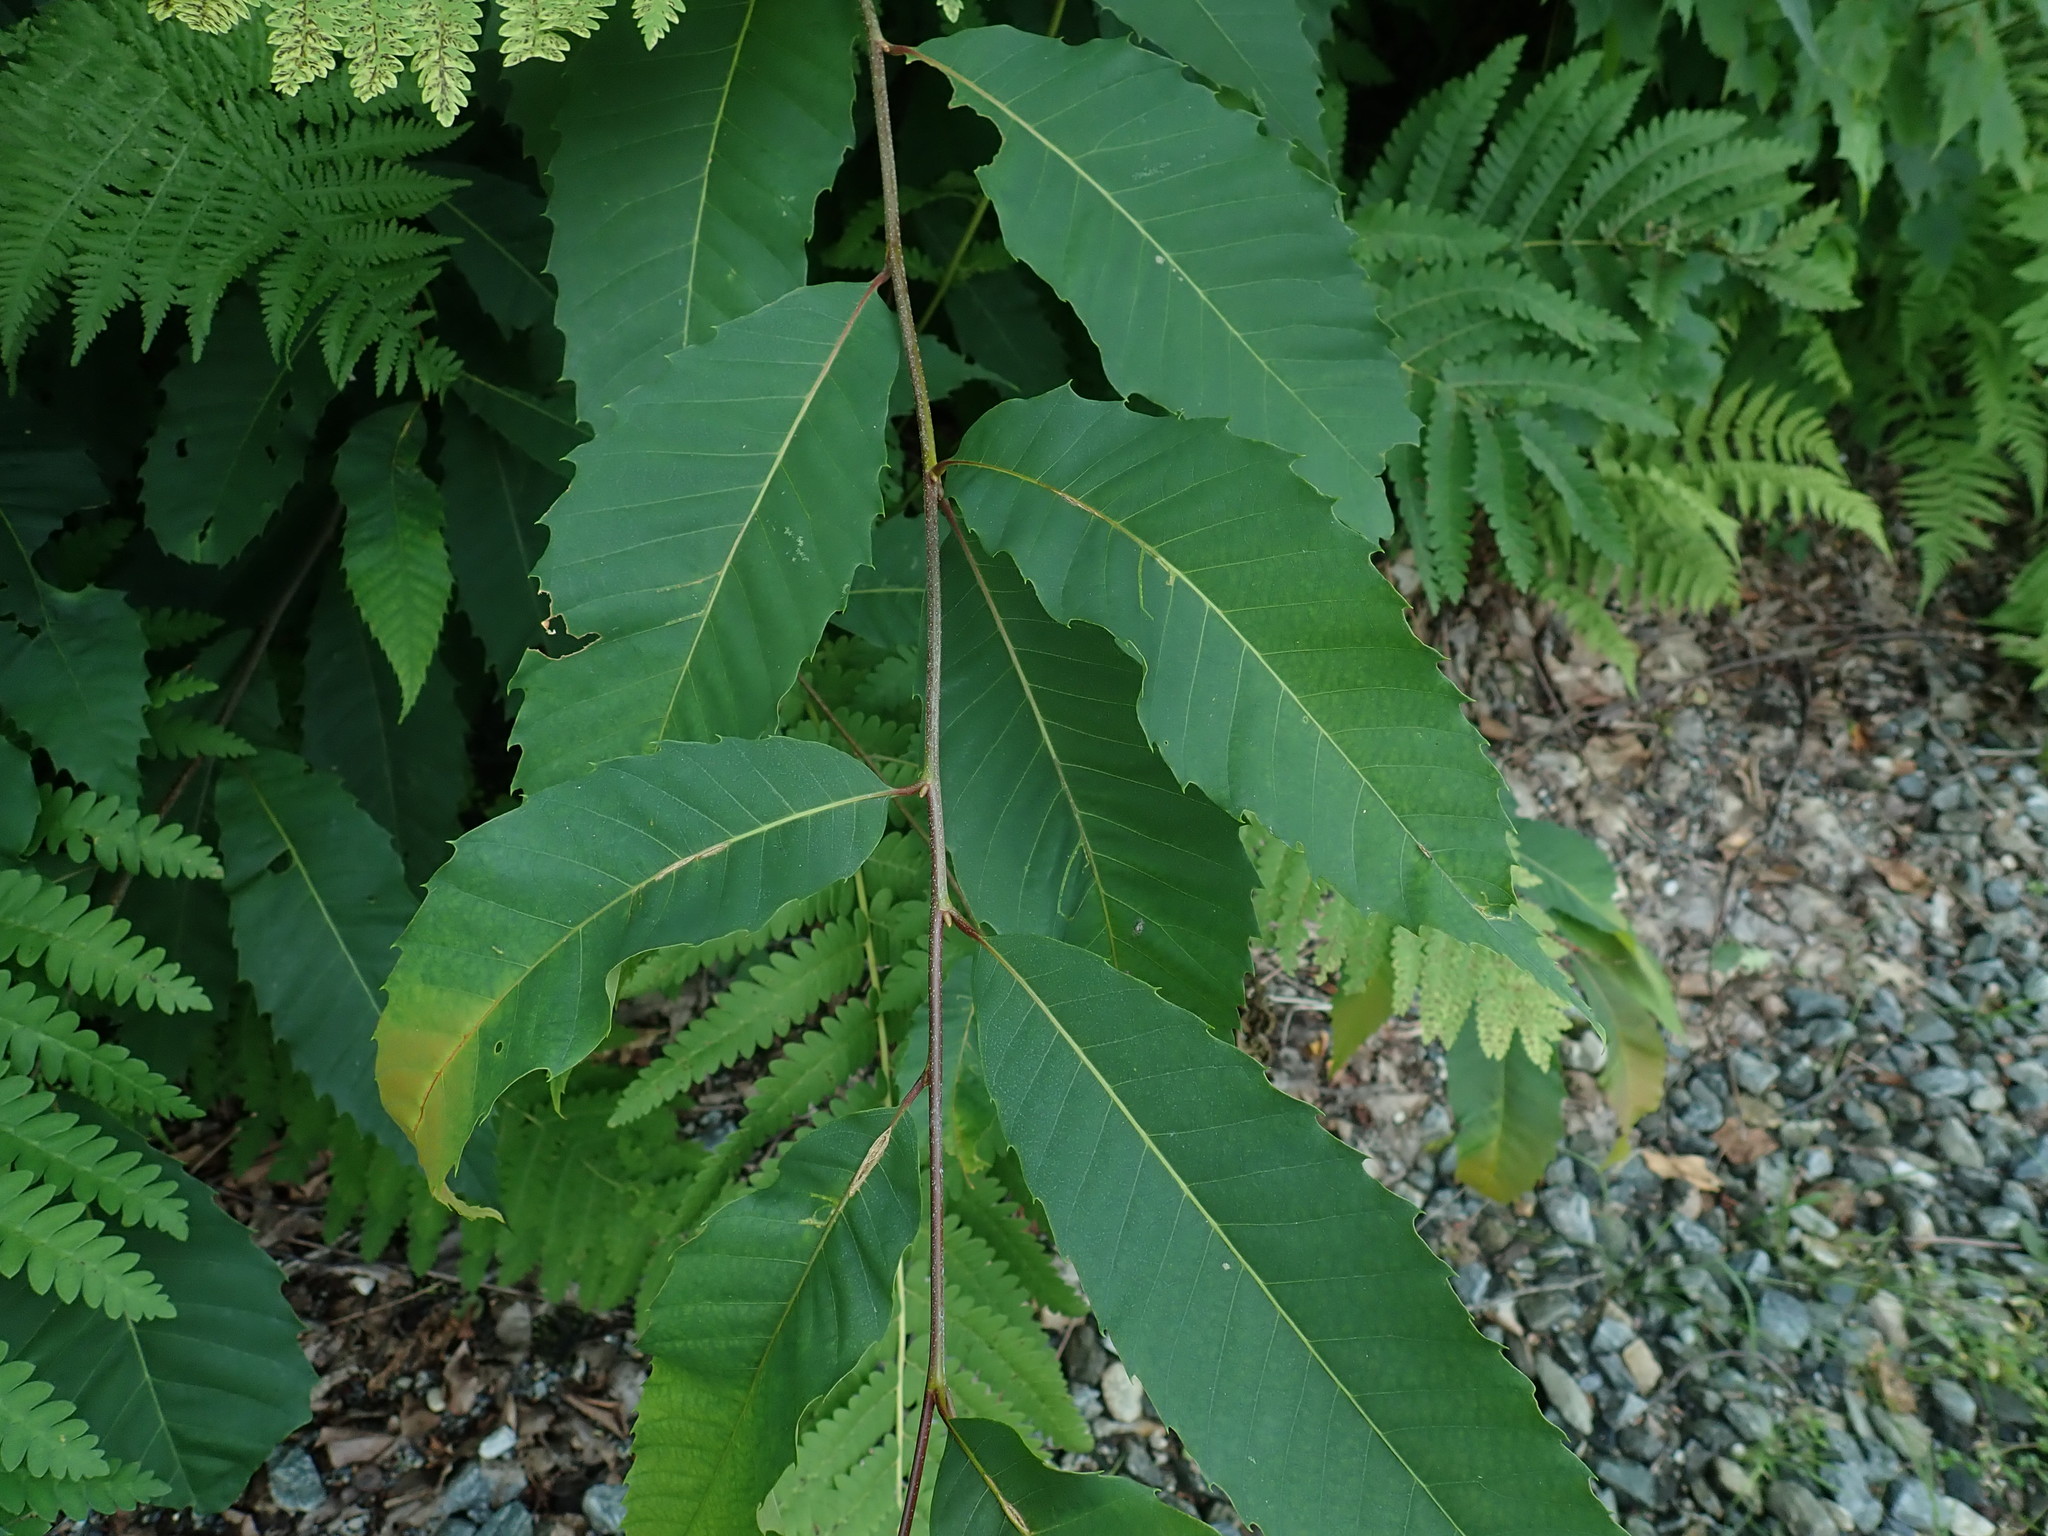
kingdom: Plantae
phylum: Tracheophyta
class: Magnoliopsida
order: Fagales
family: Fagaceae
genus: Castanea
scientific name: Castanea dentata
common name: American chestnut
